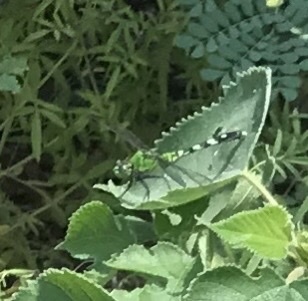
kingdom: Animalia
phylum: Arthropoda
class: Insecta
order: Odonata
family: Libellulidae
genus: Erythemis
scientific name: Erythemis simplicicollis
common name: Eastern pondhawk
